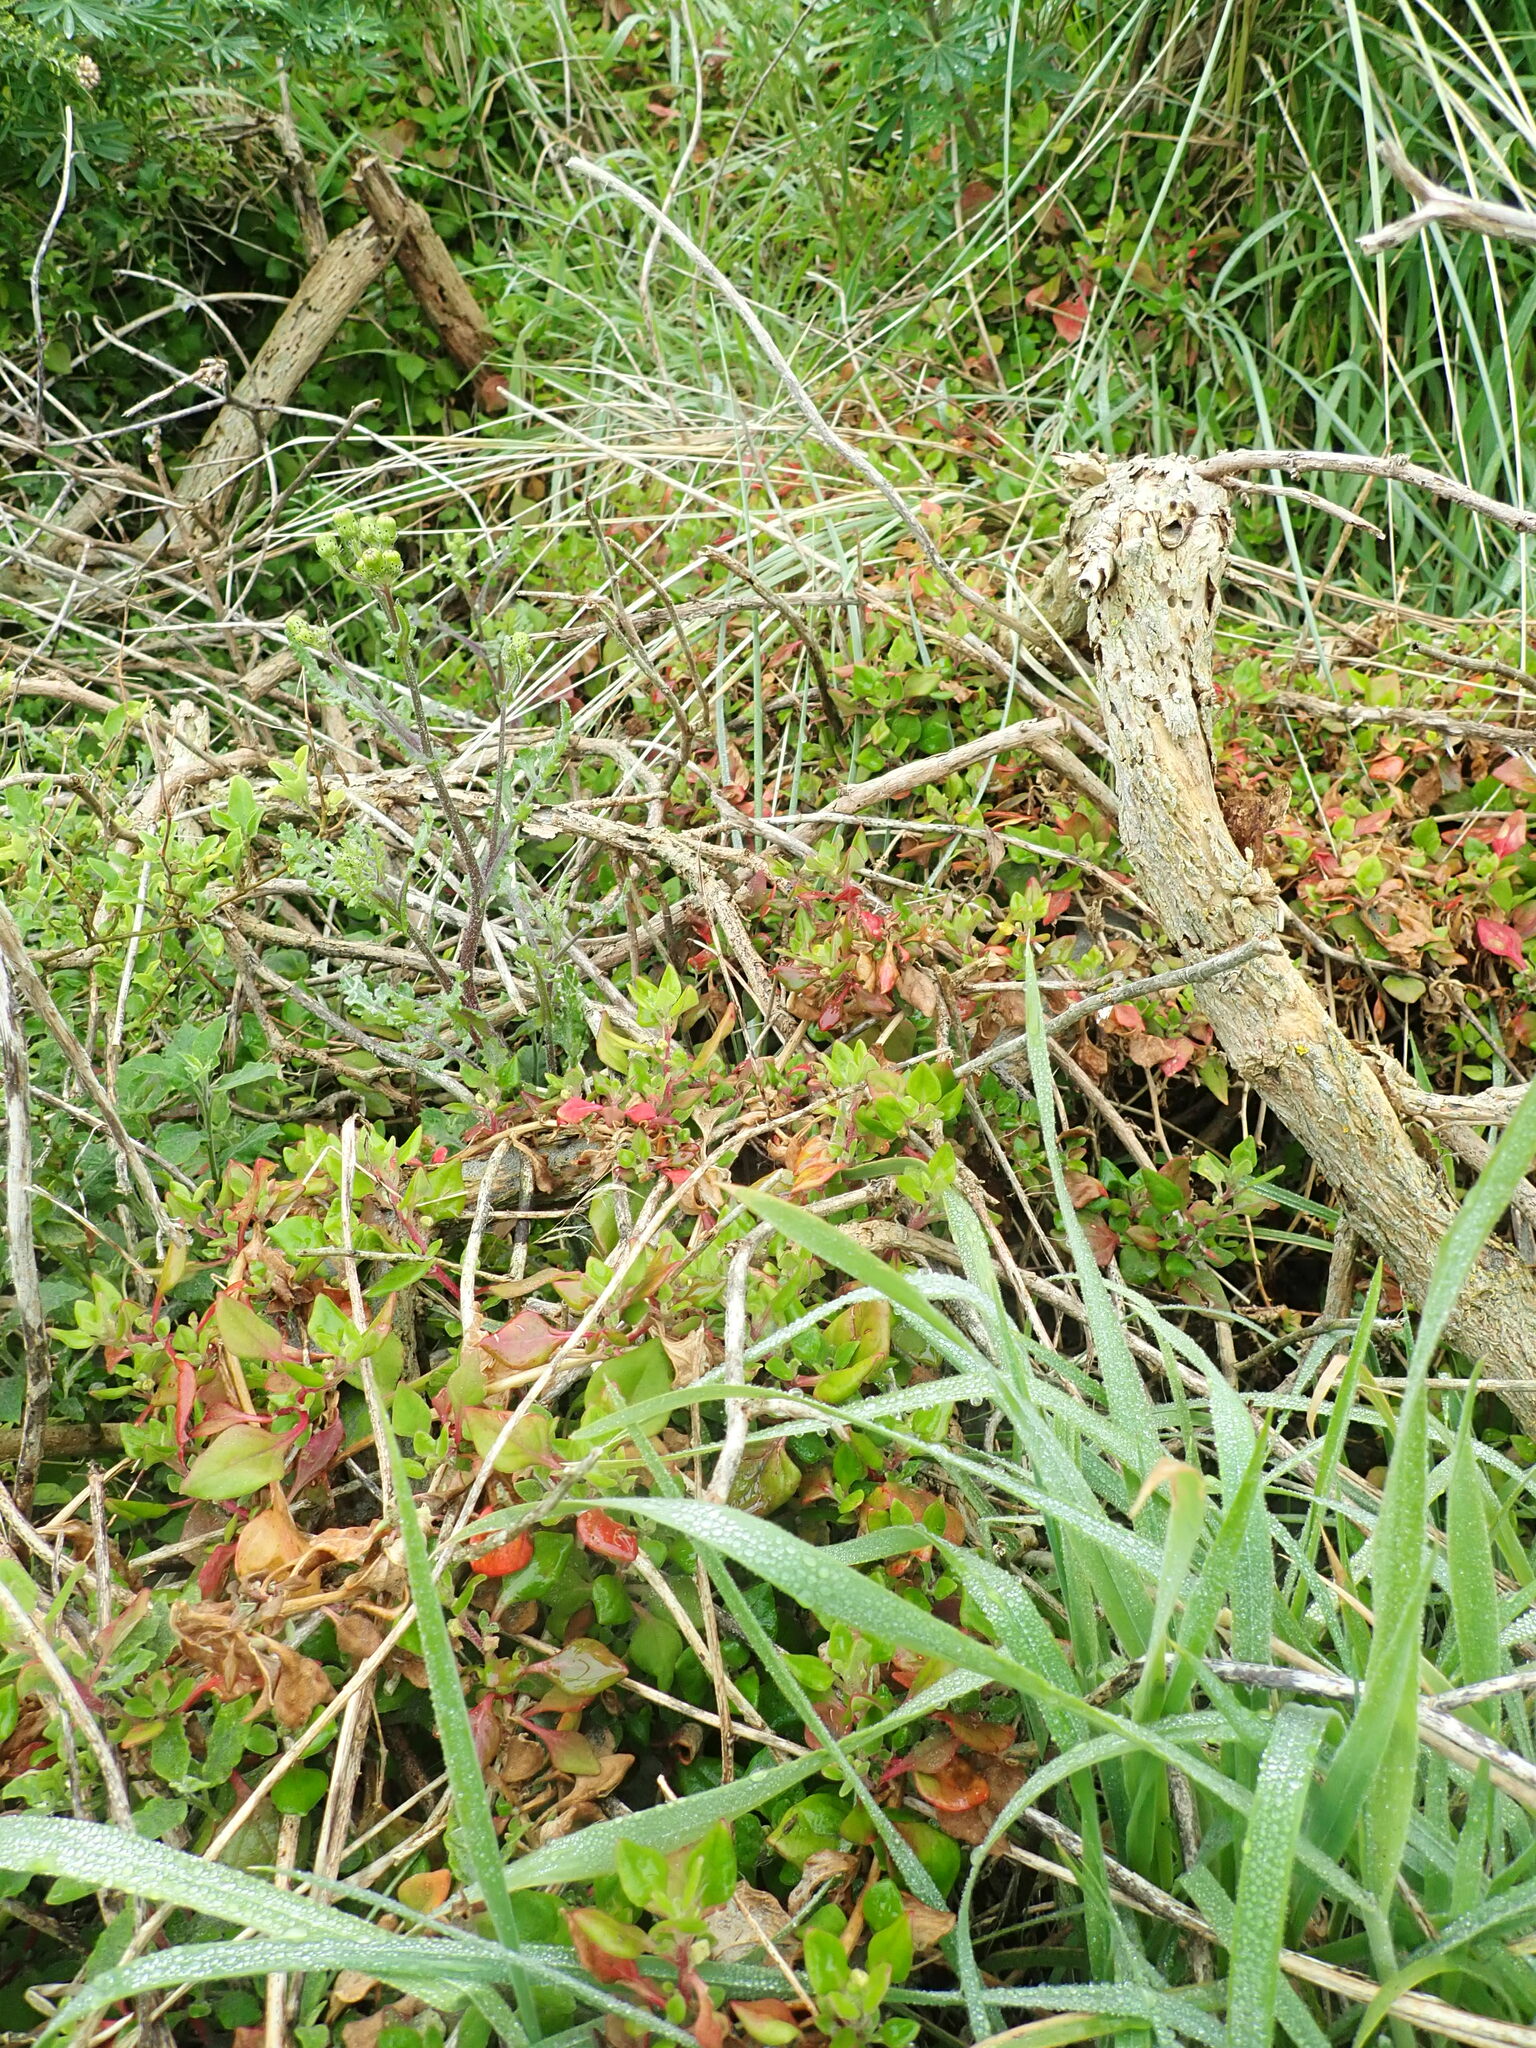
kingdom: Plantae
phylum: Tracheophyta
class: Magnoliopsida
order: Caryophyllales
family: Aizoaceae
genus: Tetragonia
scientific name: Tetragonia implexicoma
